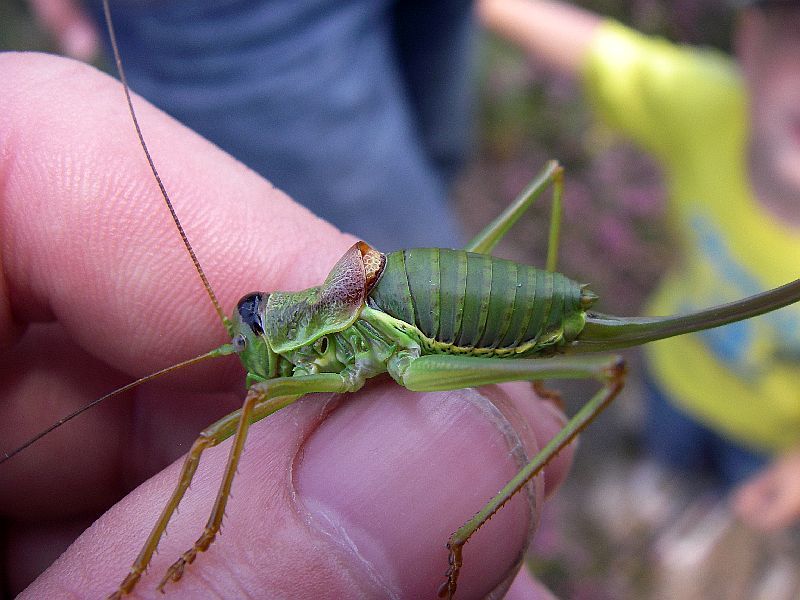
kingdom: Animalia
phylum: Arthropoda
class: Insecta
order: Orthoptera
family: Tettigoniidae
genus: Ephippiger
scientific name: Ephippiger diurnus
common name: Western saddle bush-cricket
